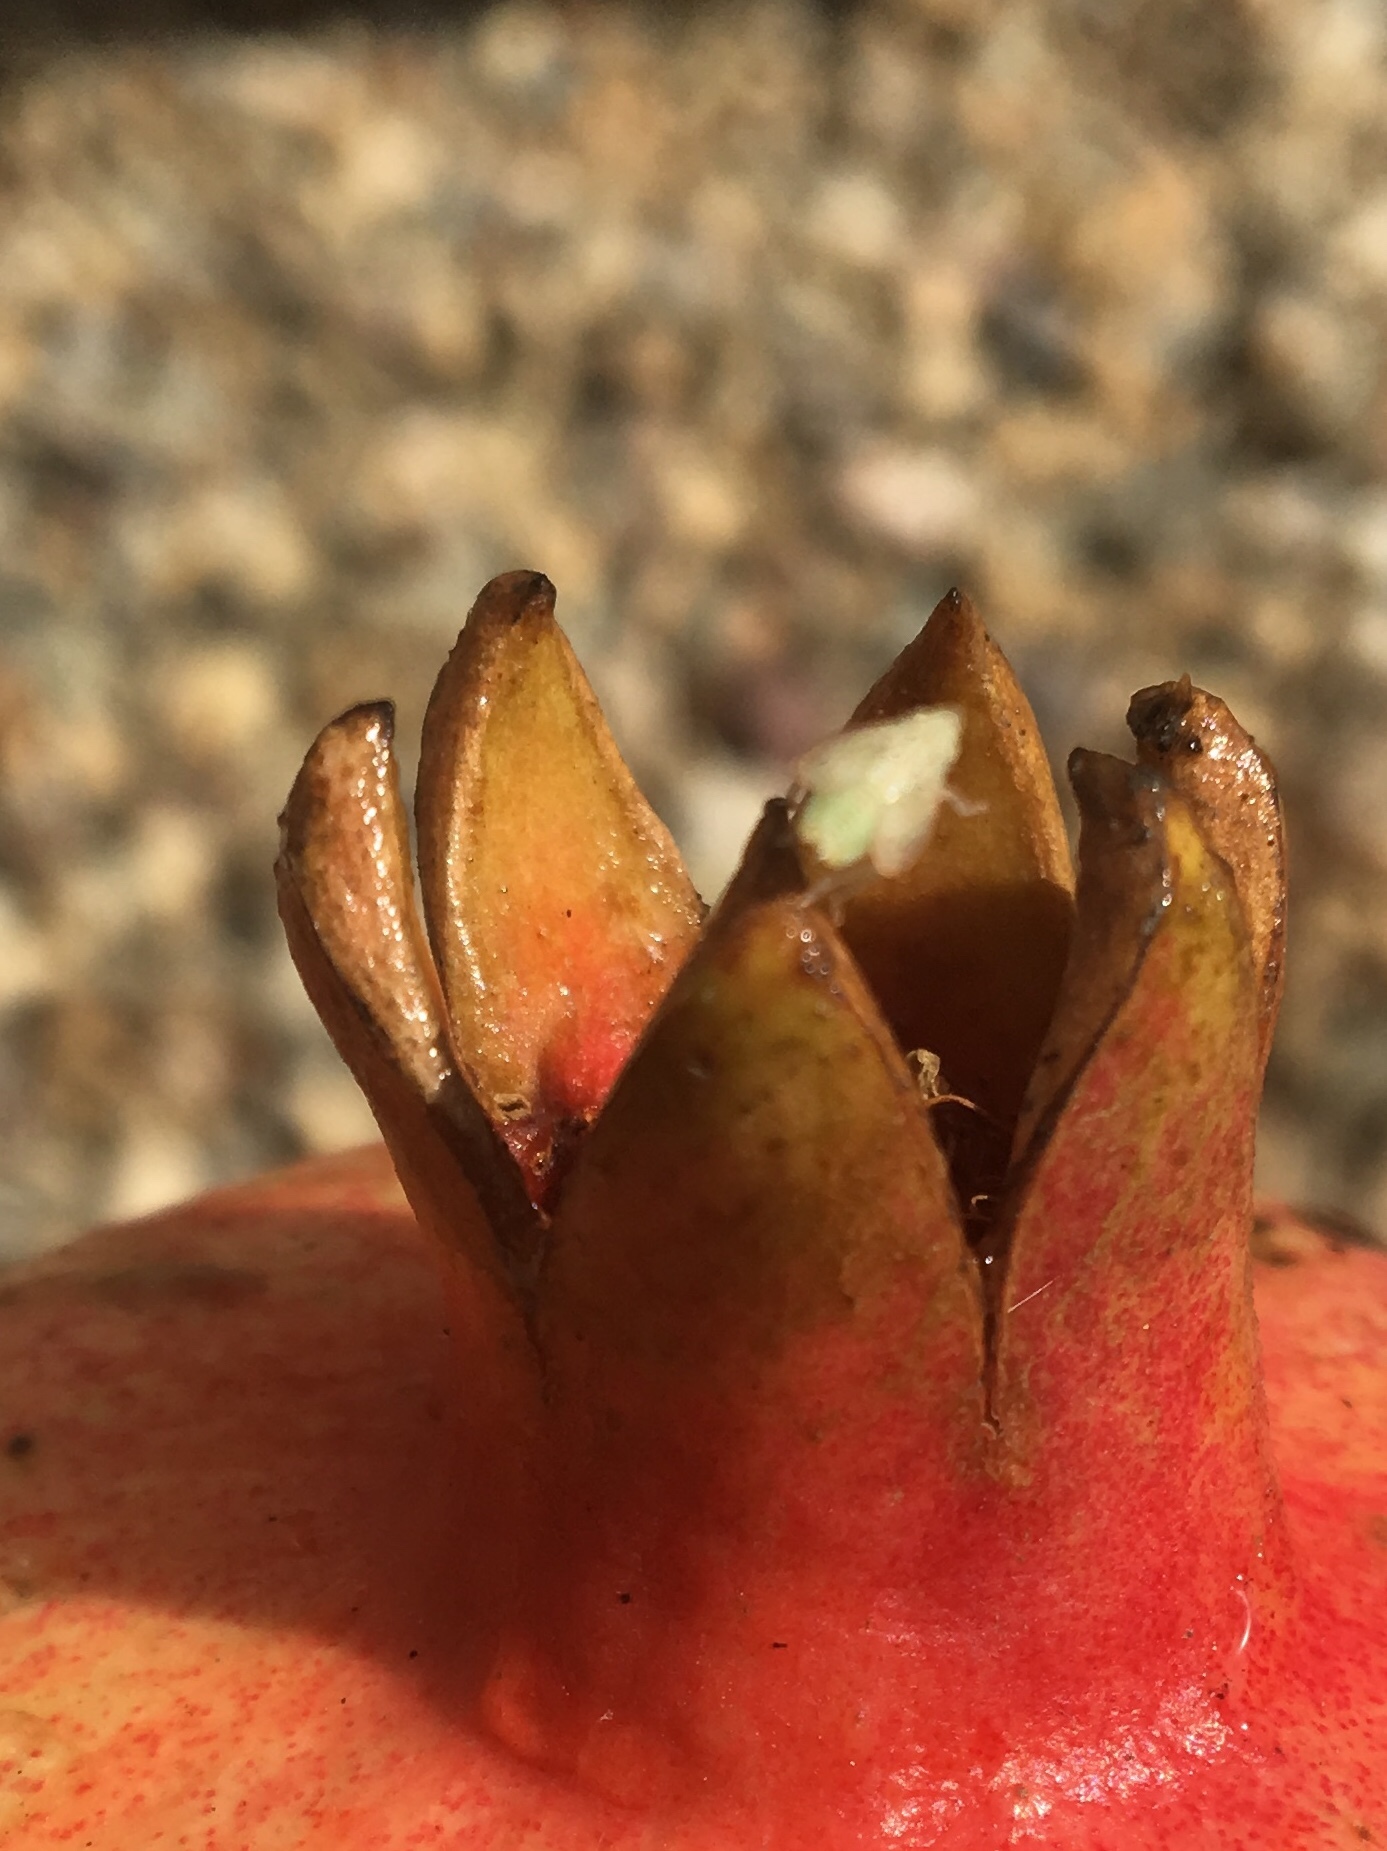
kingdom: Animalia
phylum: Arthropoda
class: Insecta
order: Hemiptera
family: Flatidae
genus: Siphanta
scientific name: Siphanta acuta
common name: Torpedo bug
